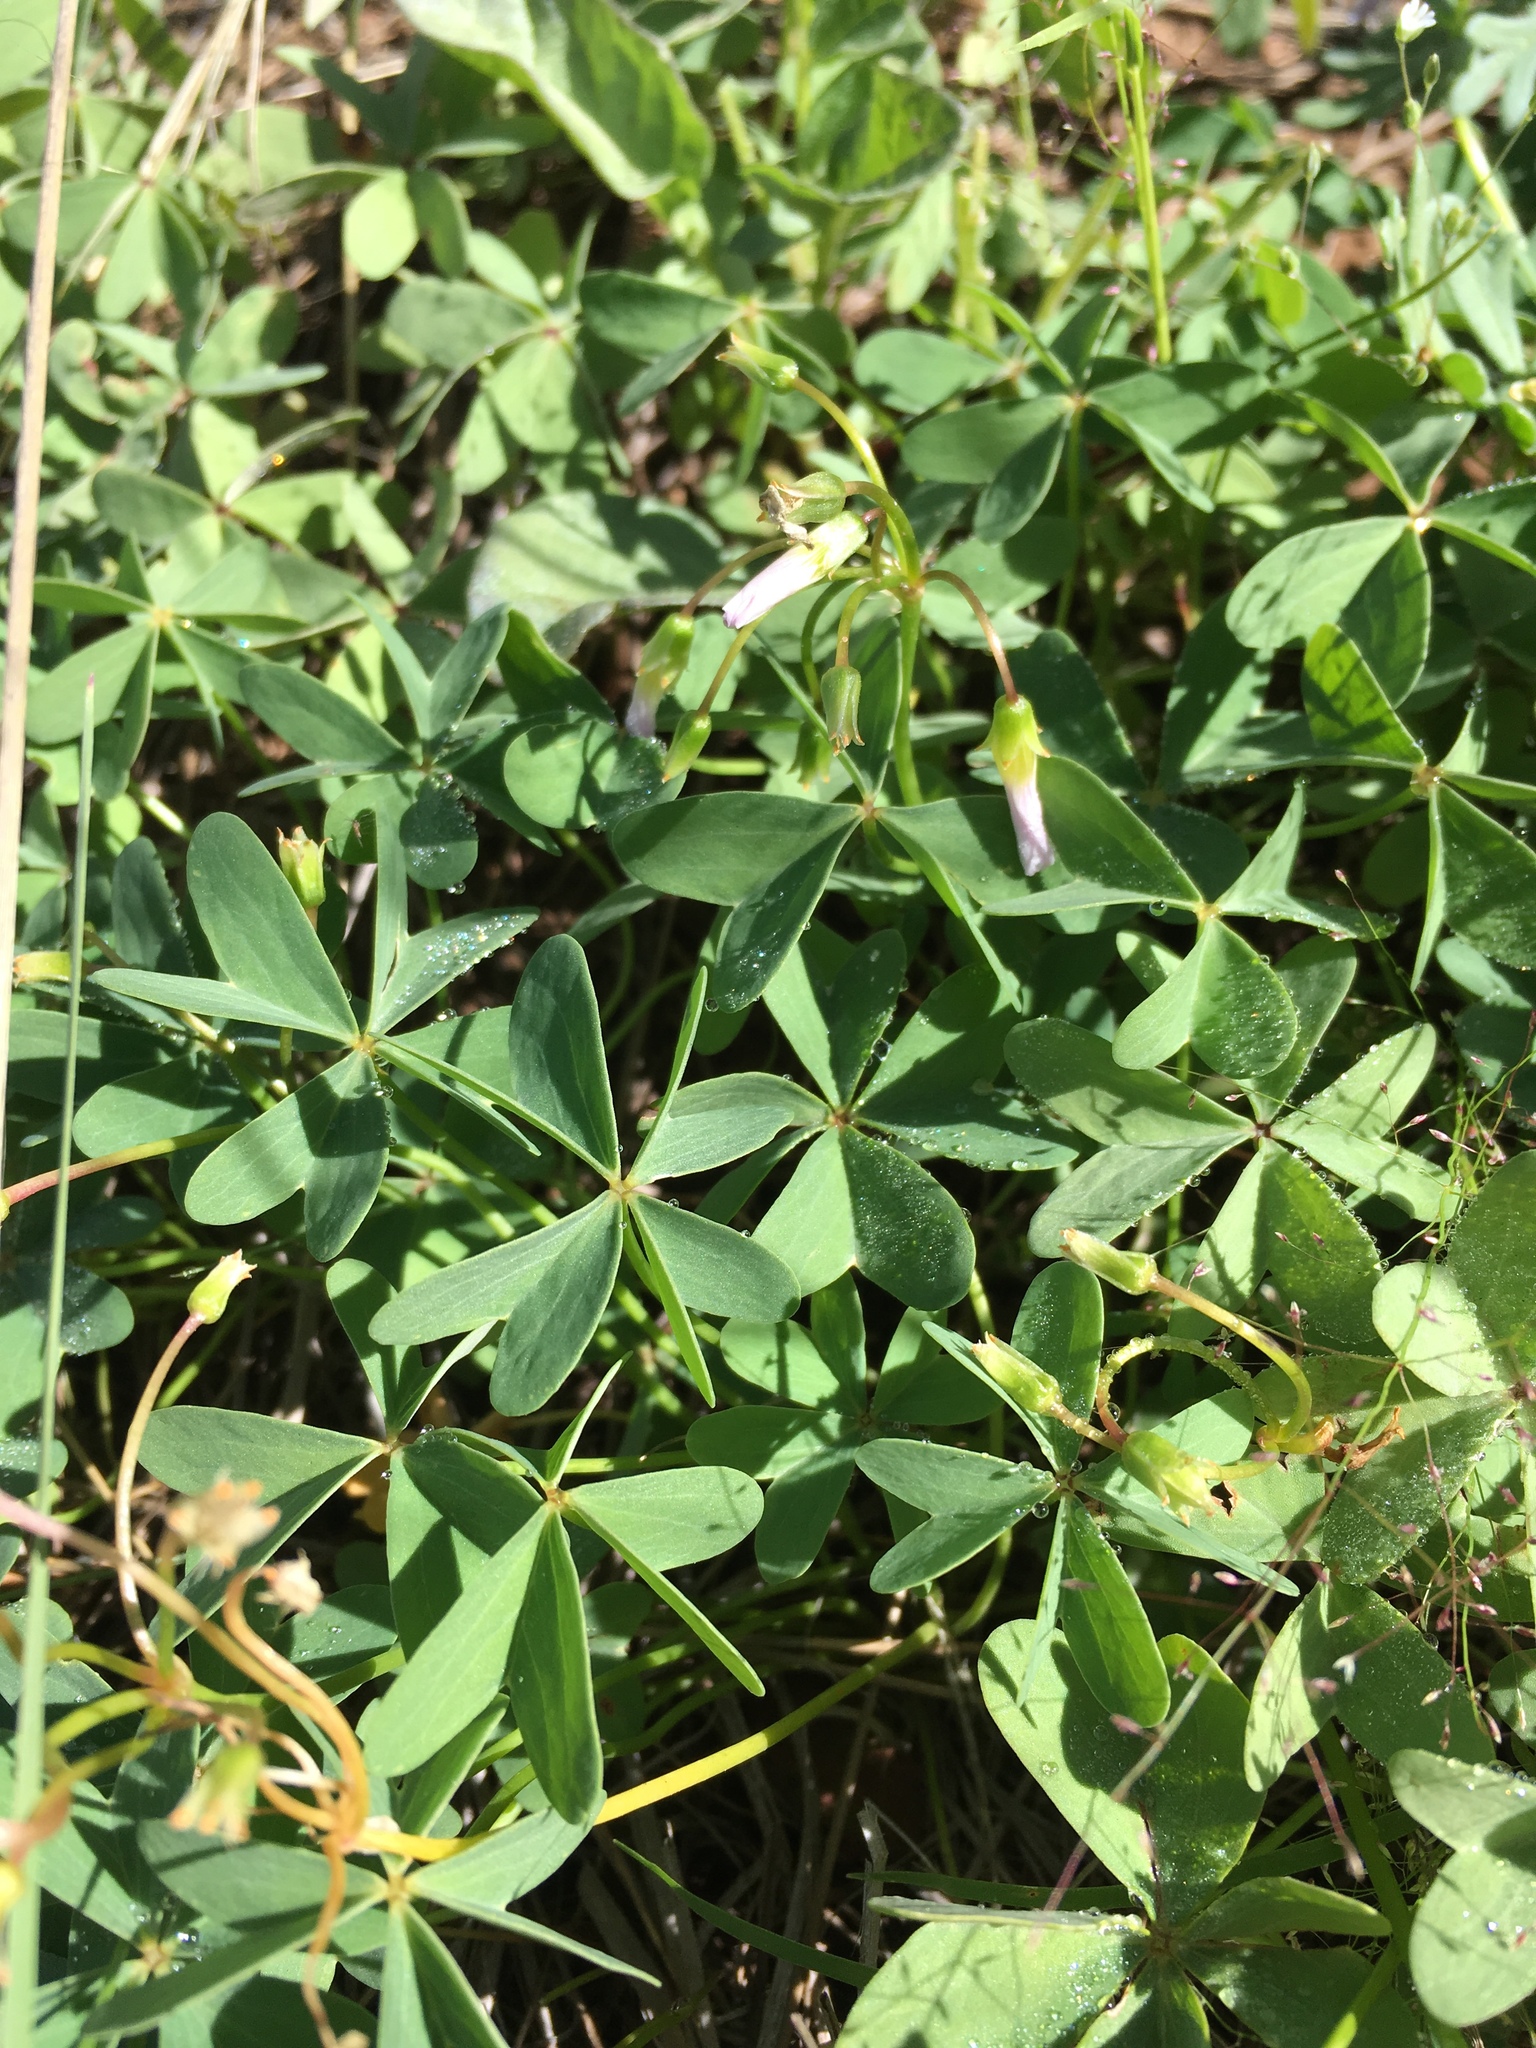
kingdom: Plantae
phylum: Tracheophyta
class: Magnoliopsida
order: Oxalidales
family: Oxalidaceae
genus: Oxalis
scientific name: Oxalis caerulea
